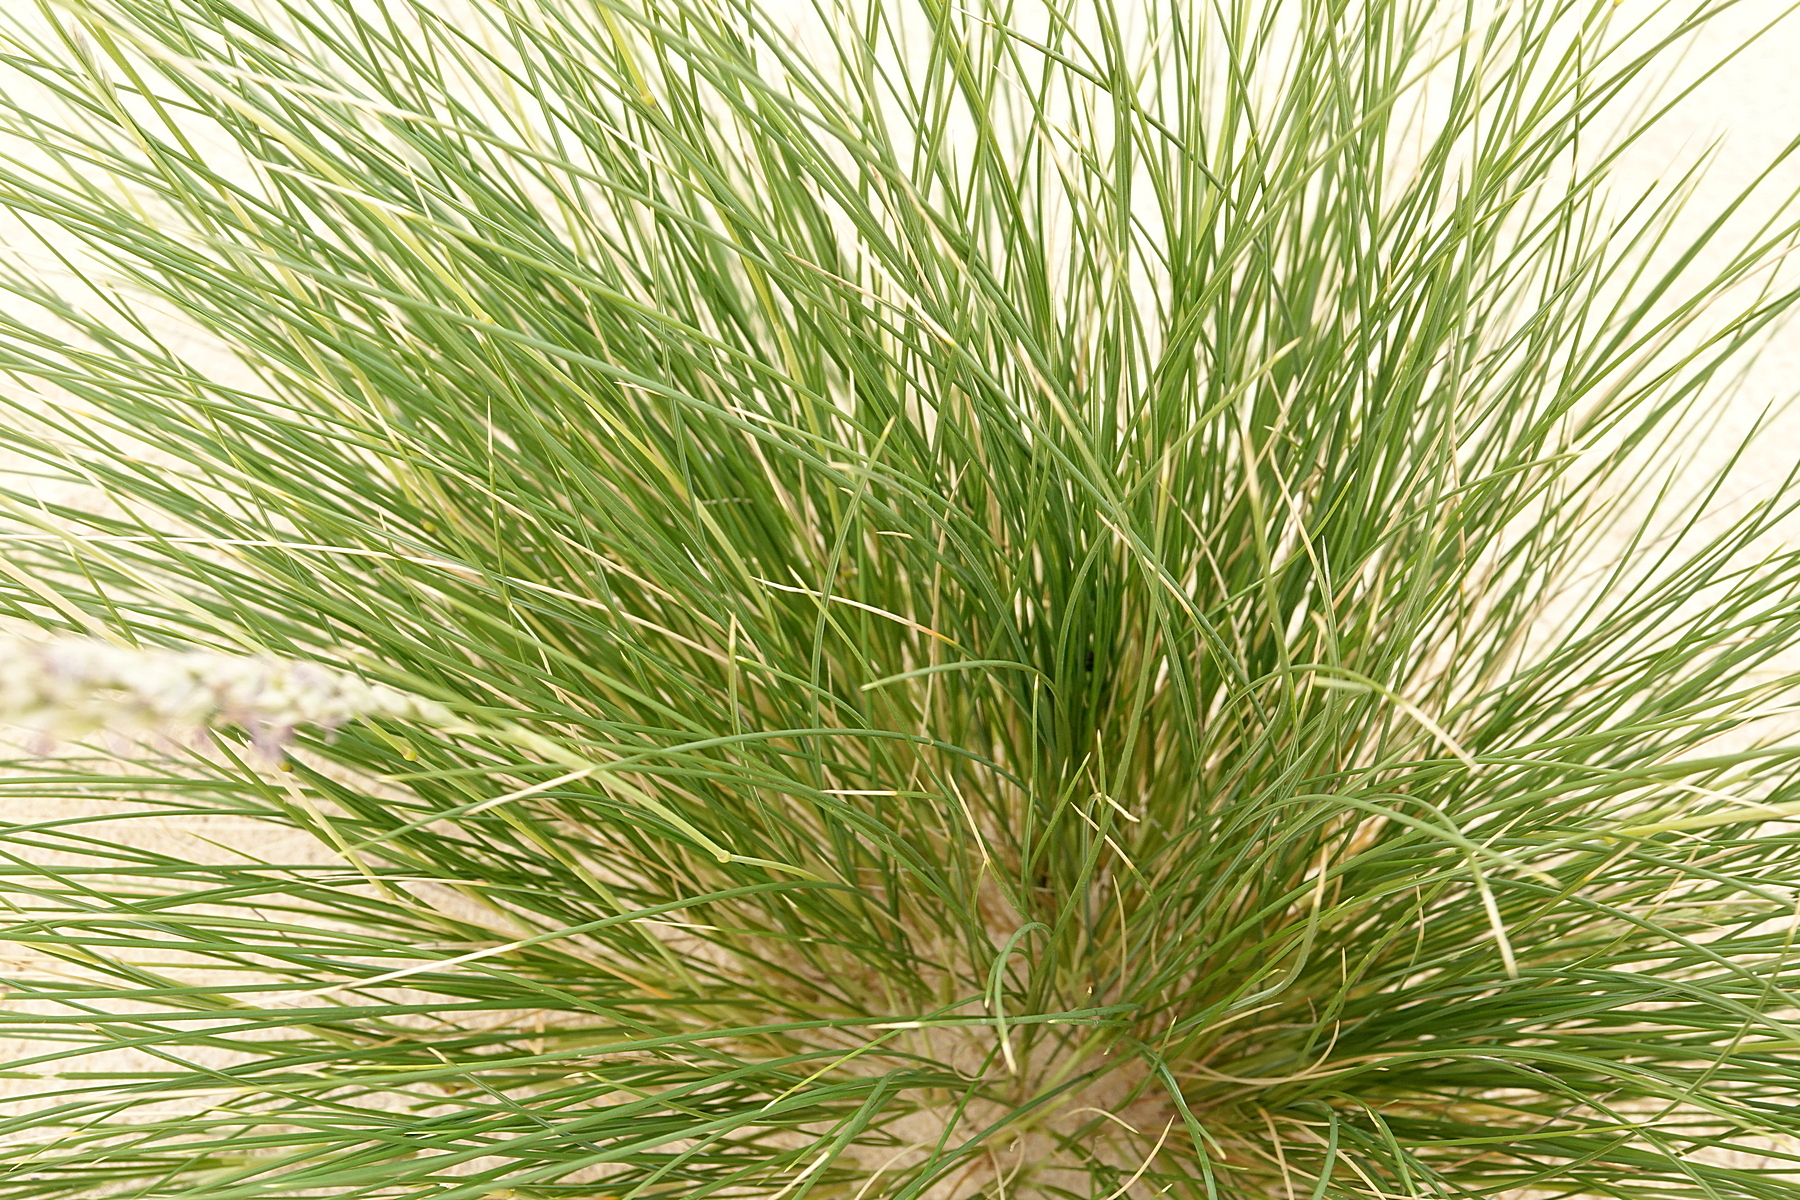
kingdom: Plantae
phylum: Tracheophyta
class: Liliopsida
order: Poales
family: Poaceae
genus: Poa
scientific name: Poa billardierei
